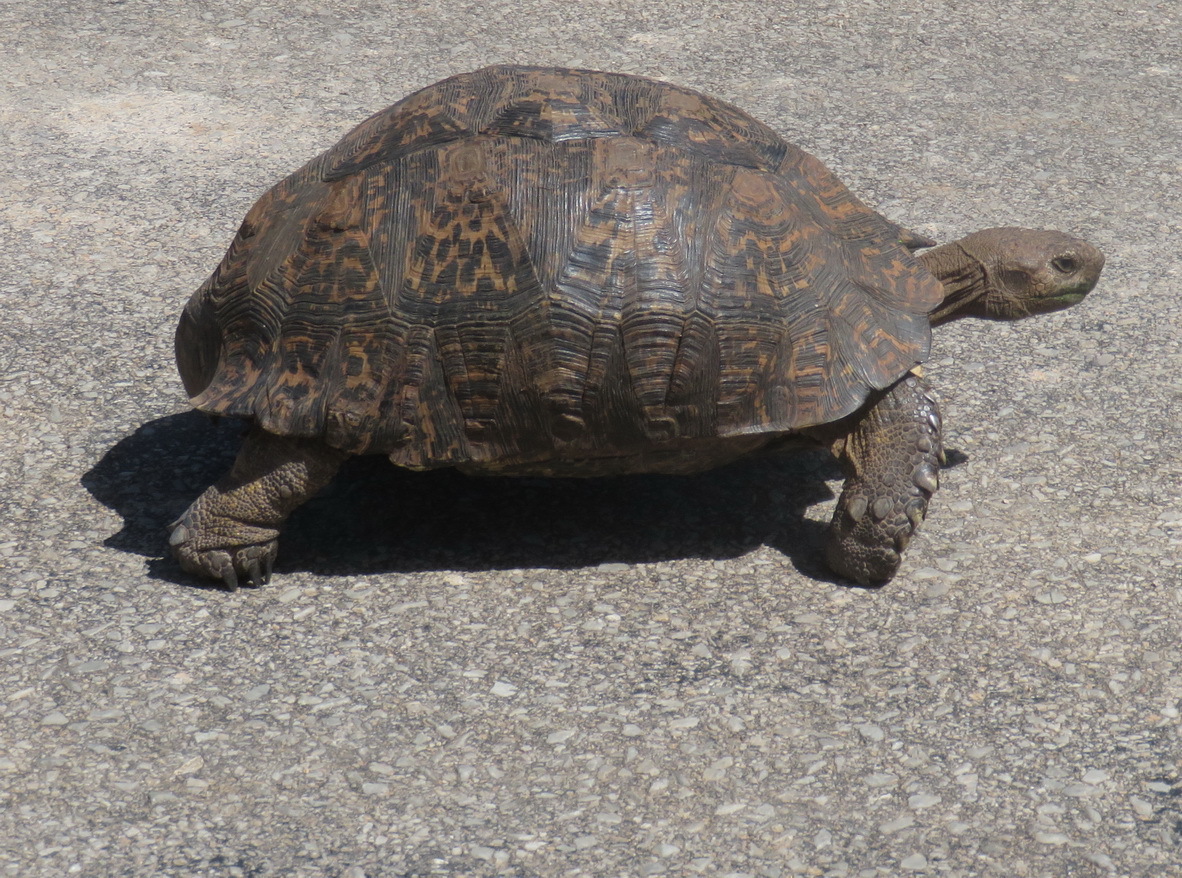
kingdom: Animalia
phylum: Chordata
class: Testudines
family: Testudinidae
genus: Stigmochelys
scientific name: Stigmochelys pardalis
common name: Leopard tortoise
